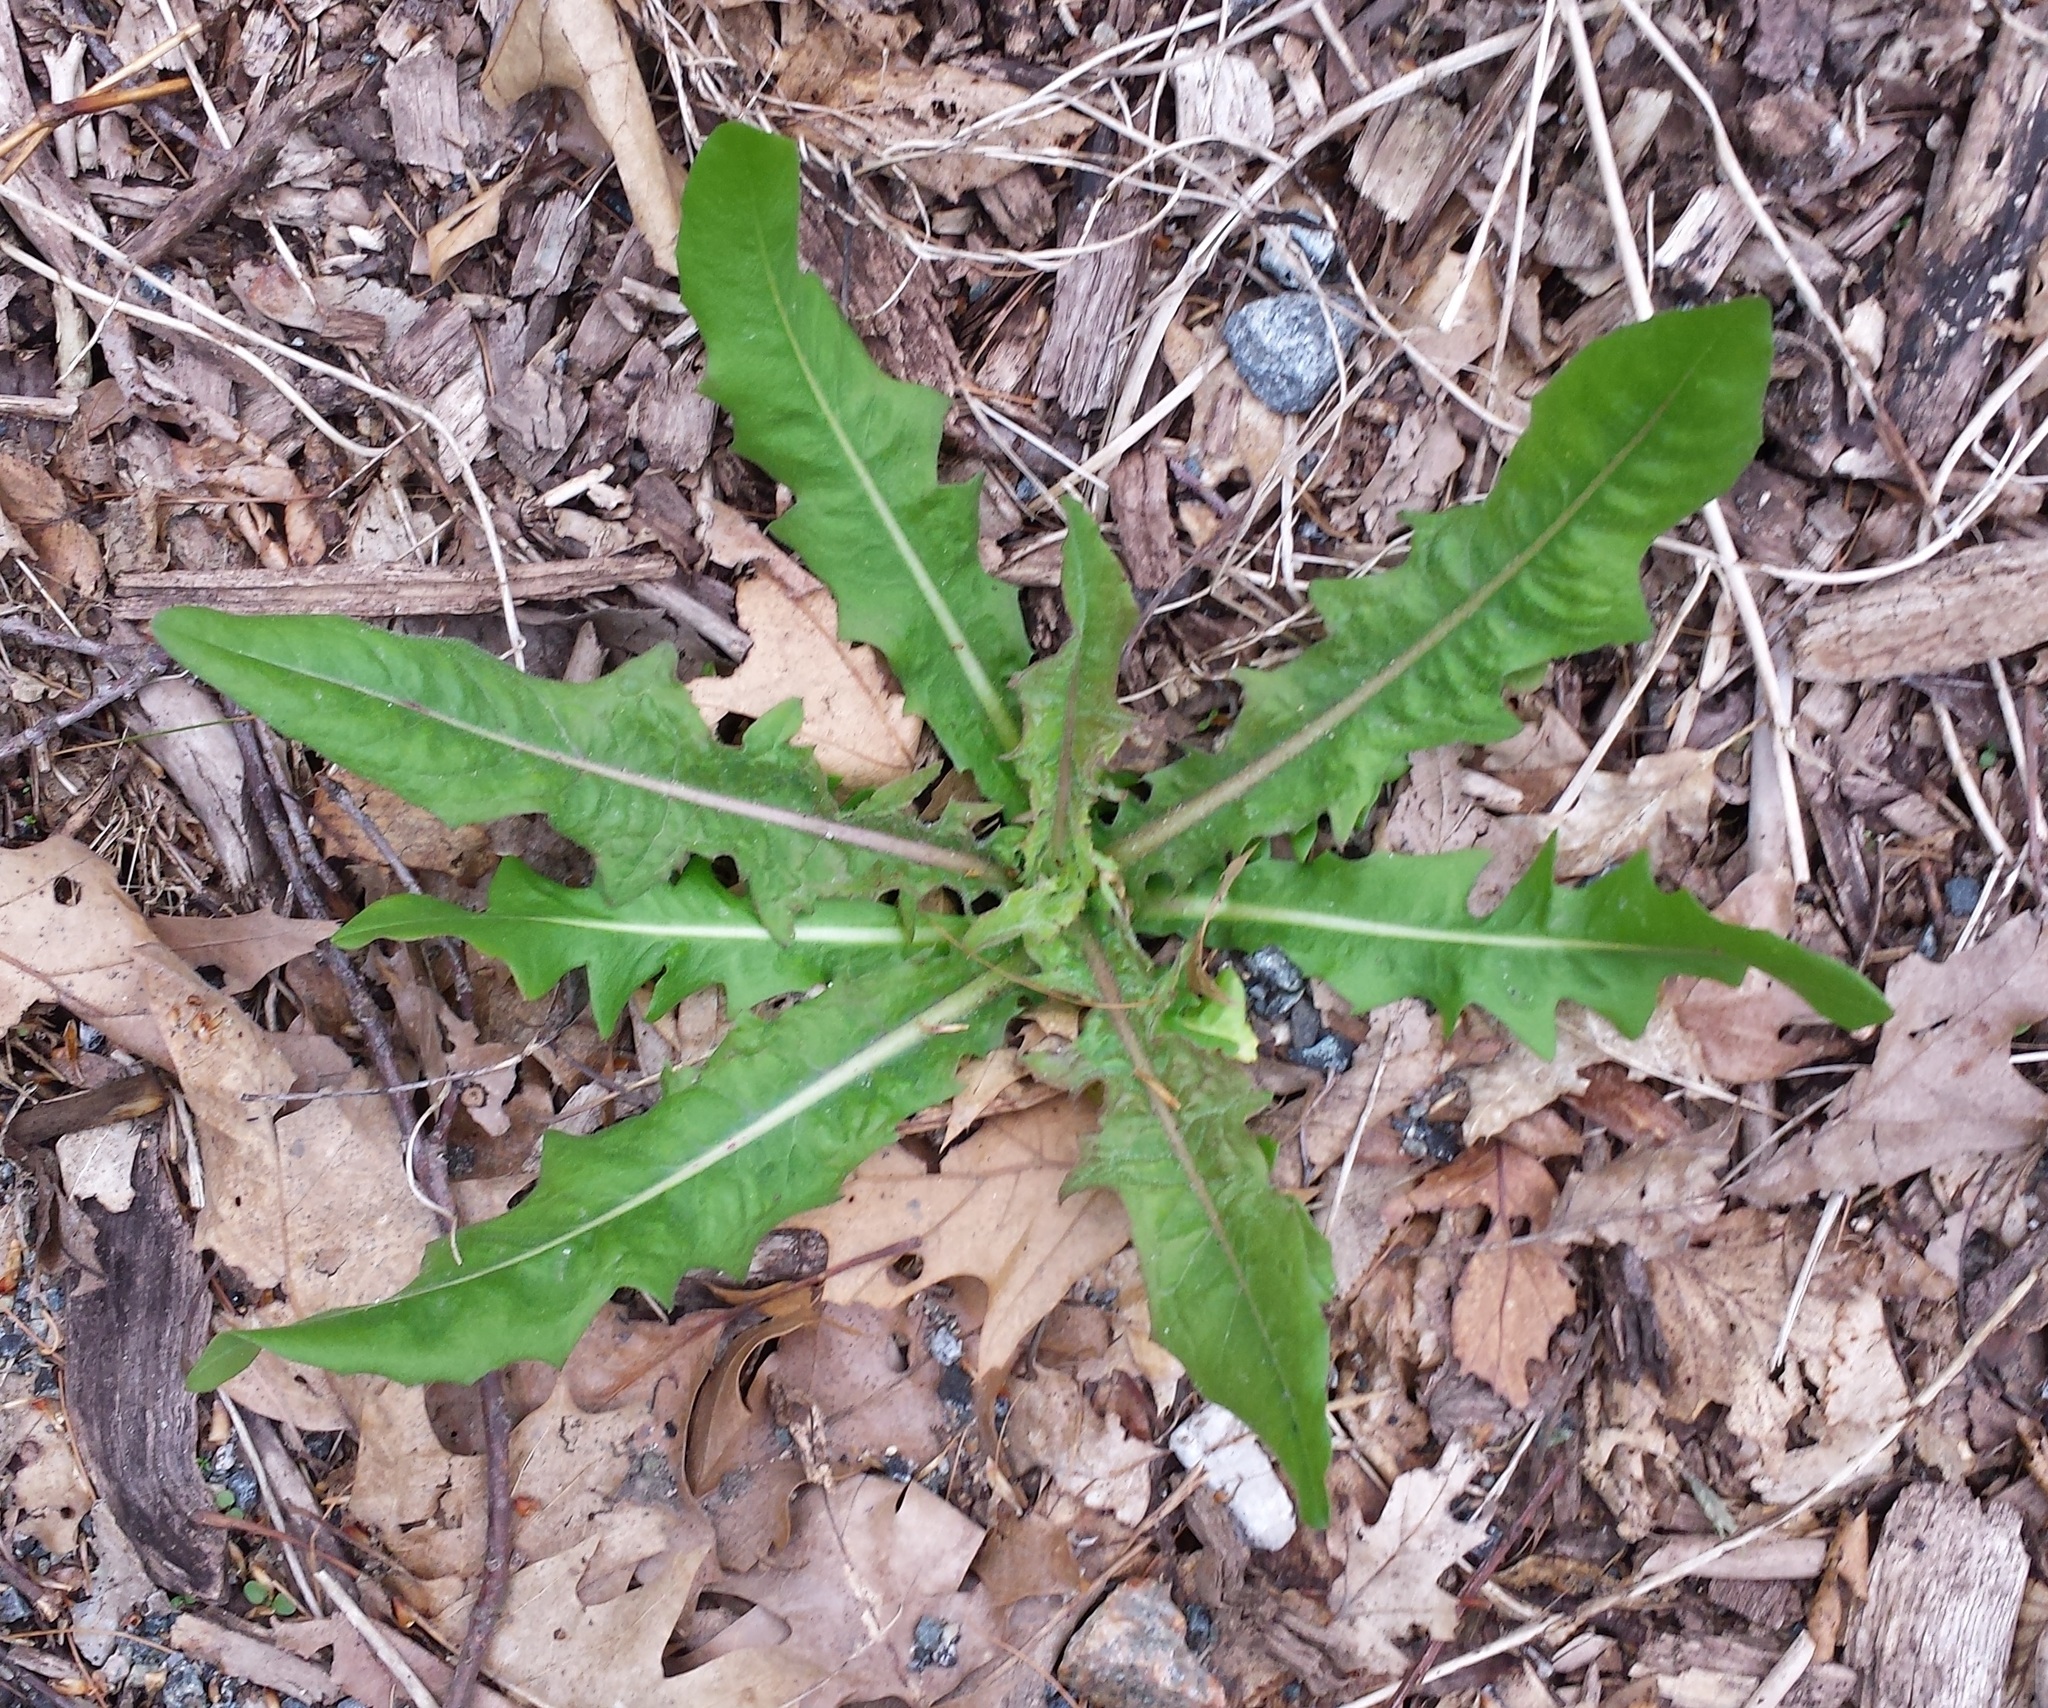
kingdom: Plantae
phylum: Tracheophyta
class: Magnoliopsida
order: Asterales
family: Asteraceae
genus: Taraxacum
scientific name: Taraxacum officinale
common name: Common dandelion
